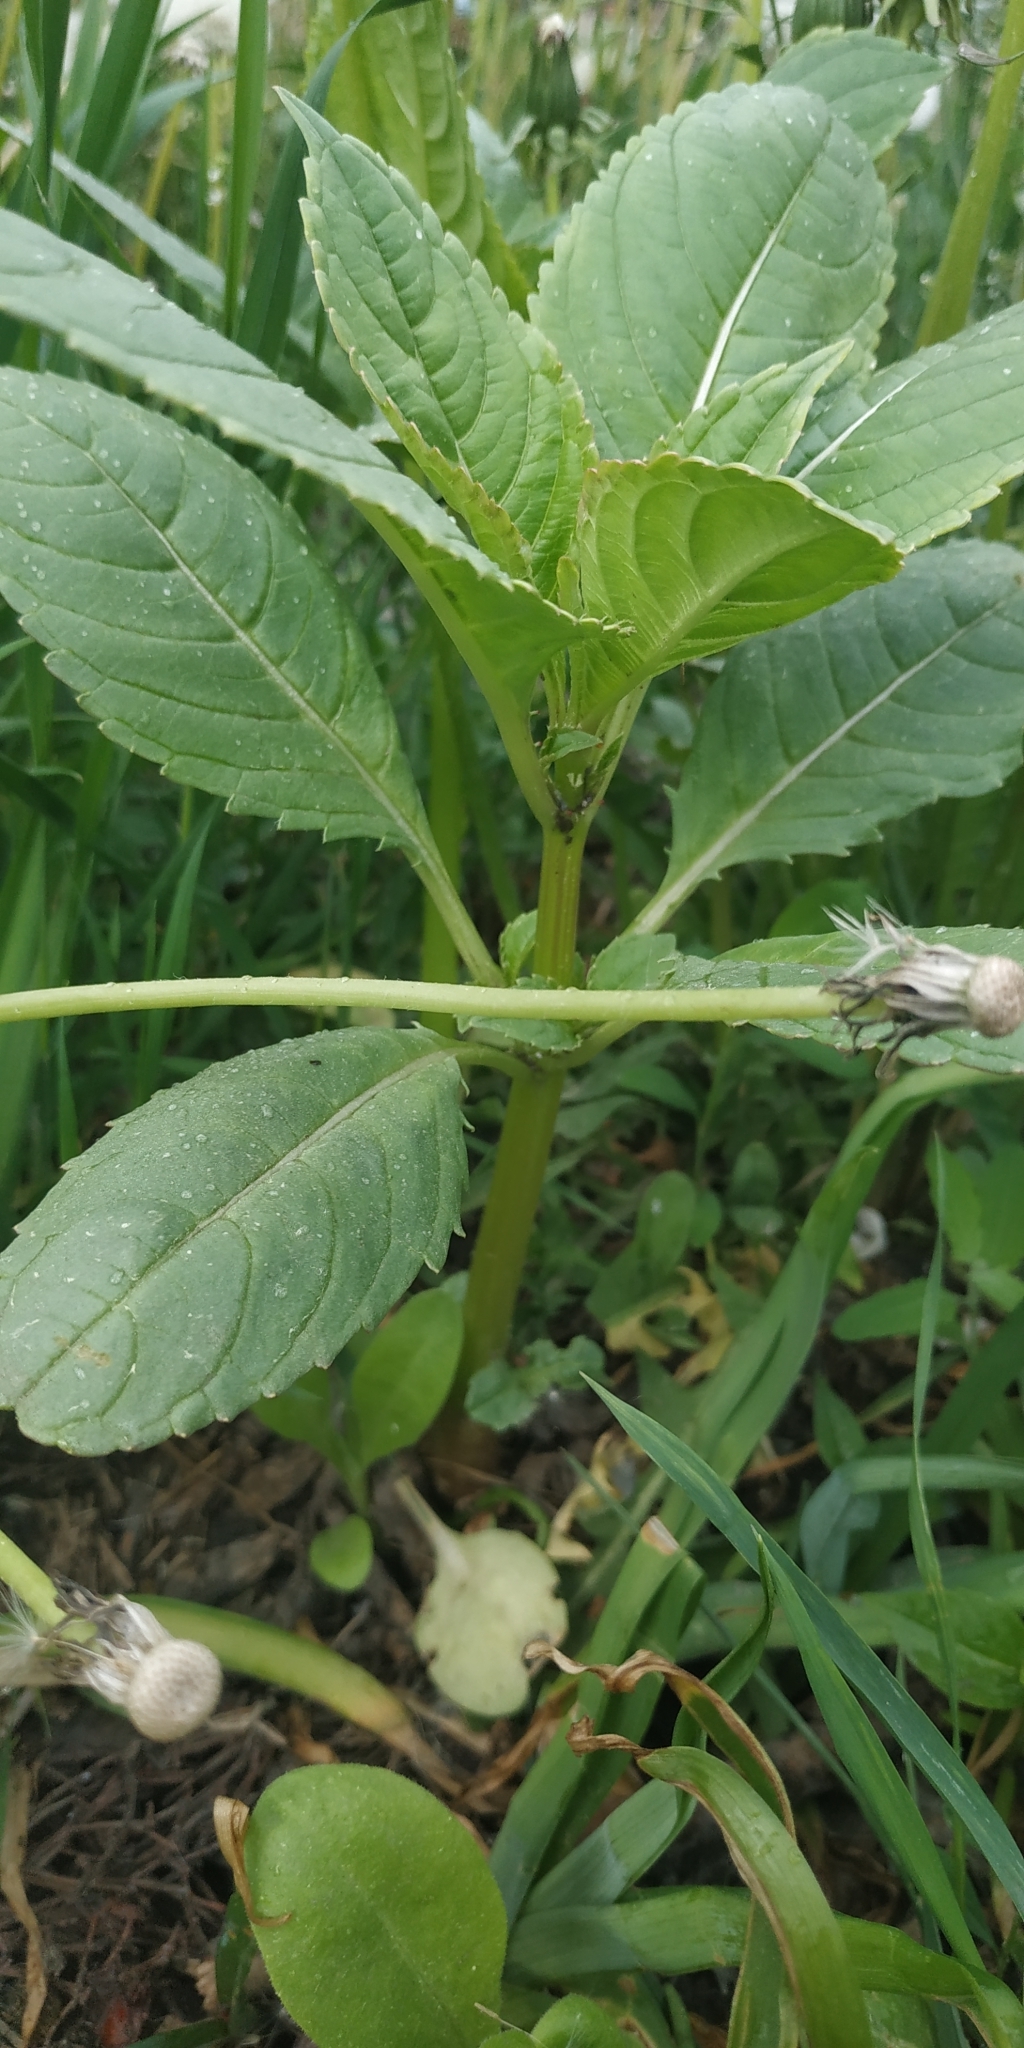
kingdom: Plantae
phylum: Tracheophyta
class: Magnoliopsida
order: Ericales
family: Balsaminaceae
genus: Impatiens
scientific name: Impatiens glandulifera
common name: Himalayan balsam
